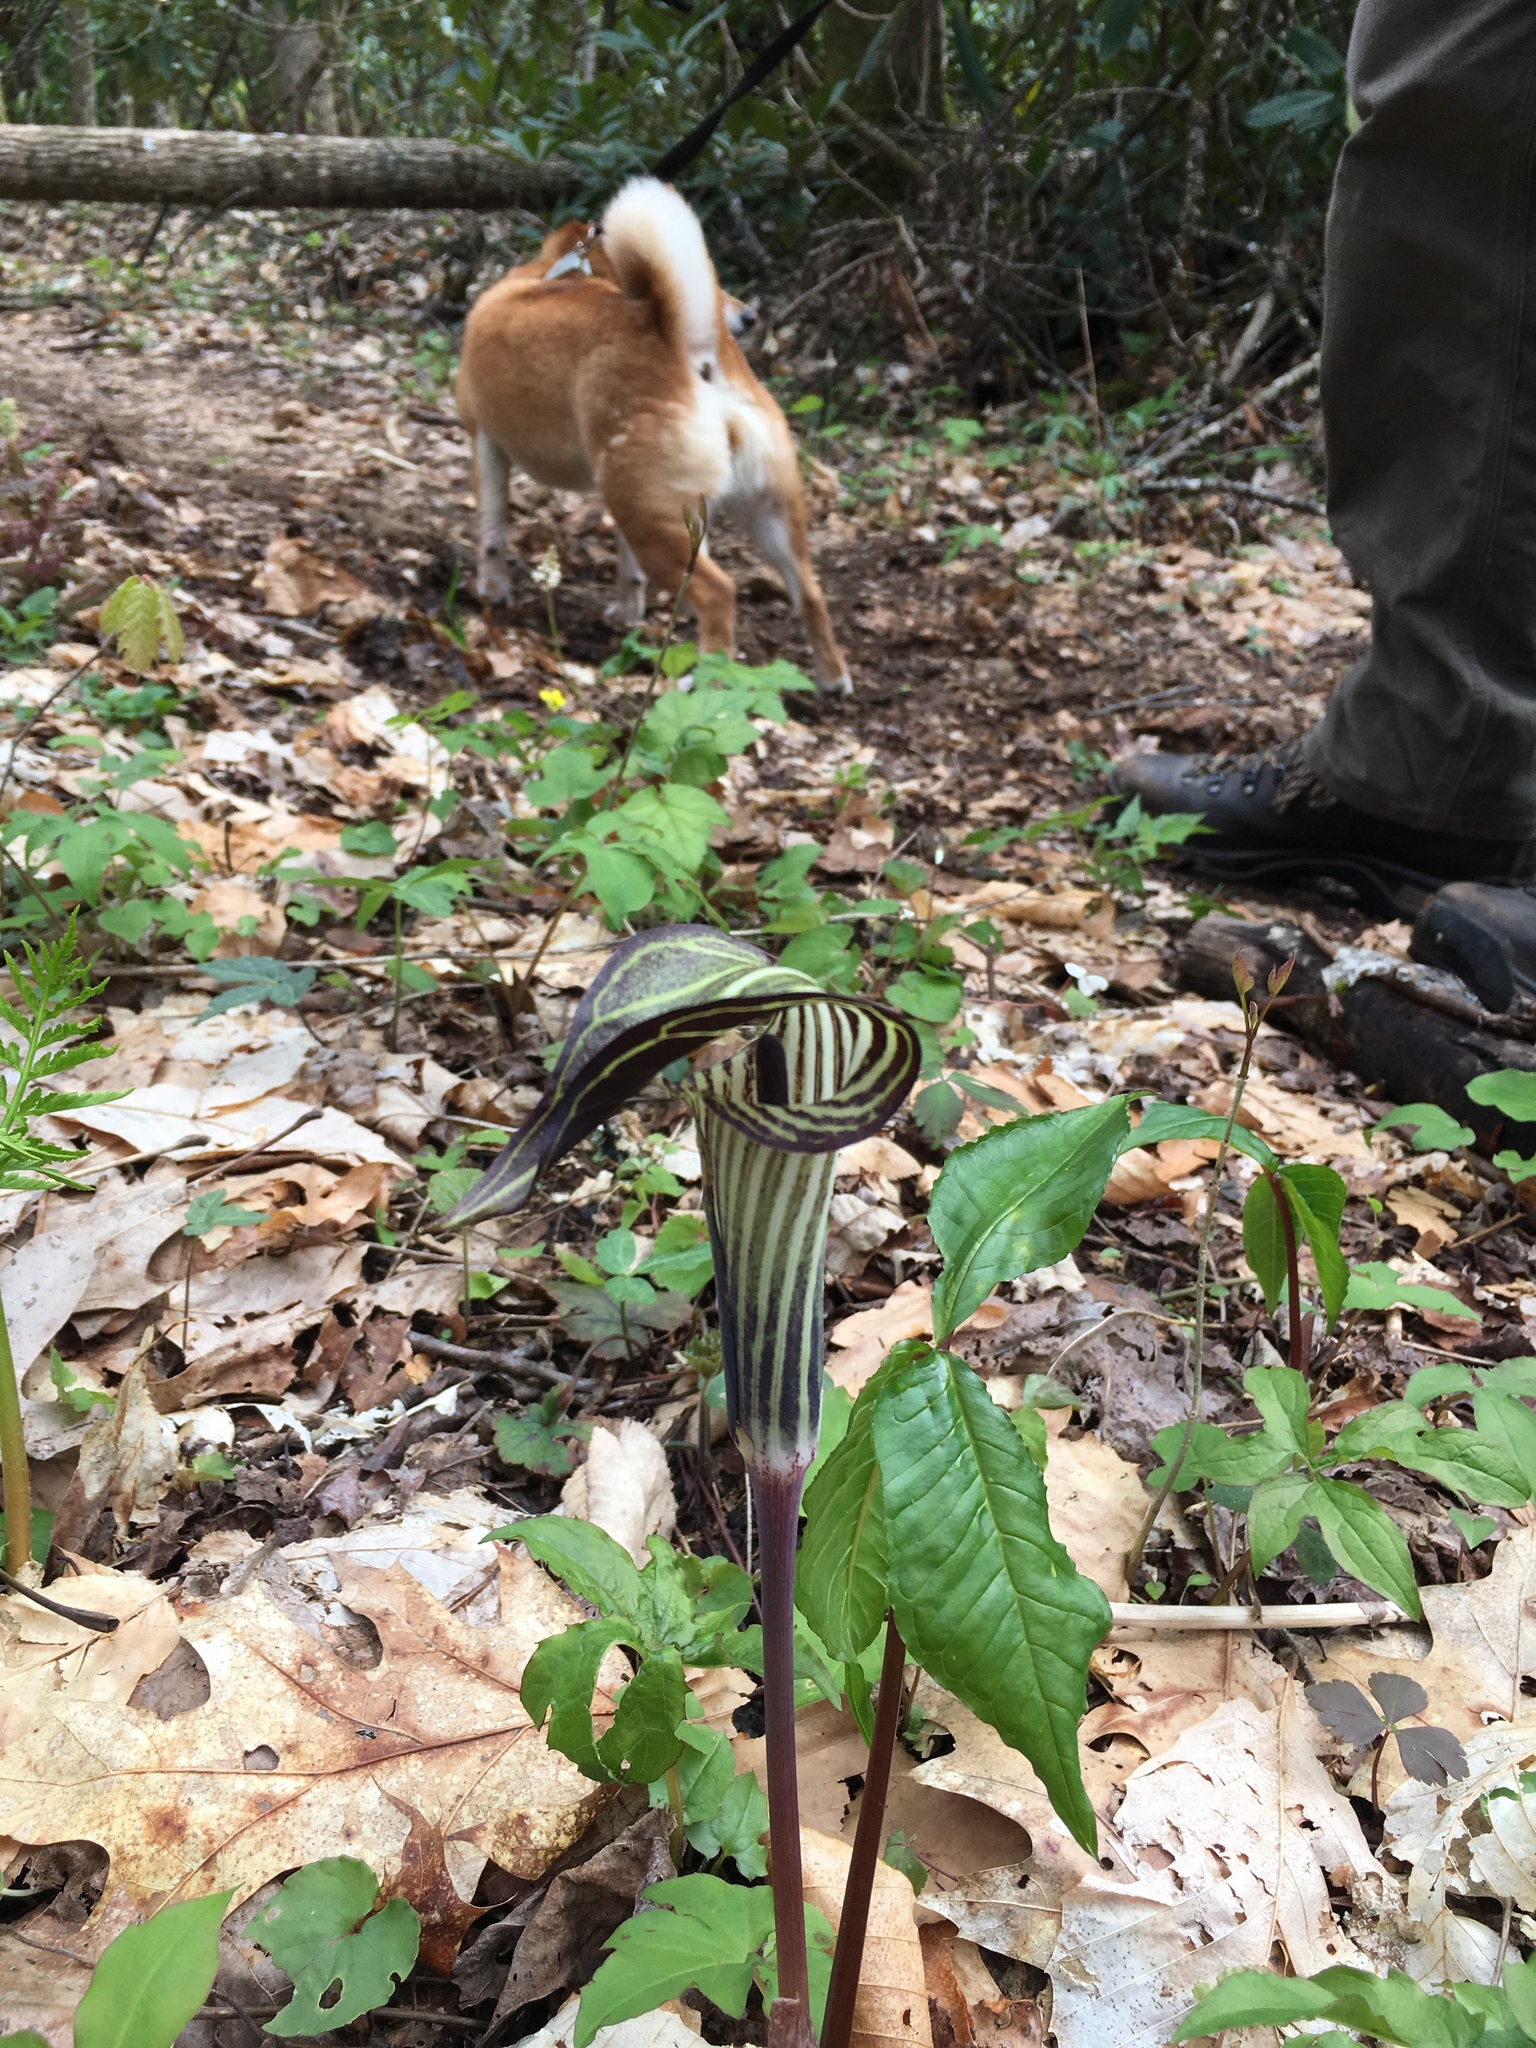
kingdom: Plantae
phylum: Tracheophyta
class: Liliopsida
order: Alismatales
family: Araceae
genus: Arisaema
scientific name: Arisaema triphyllum
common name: Jack-in-the-pulpit
